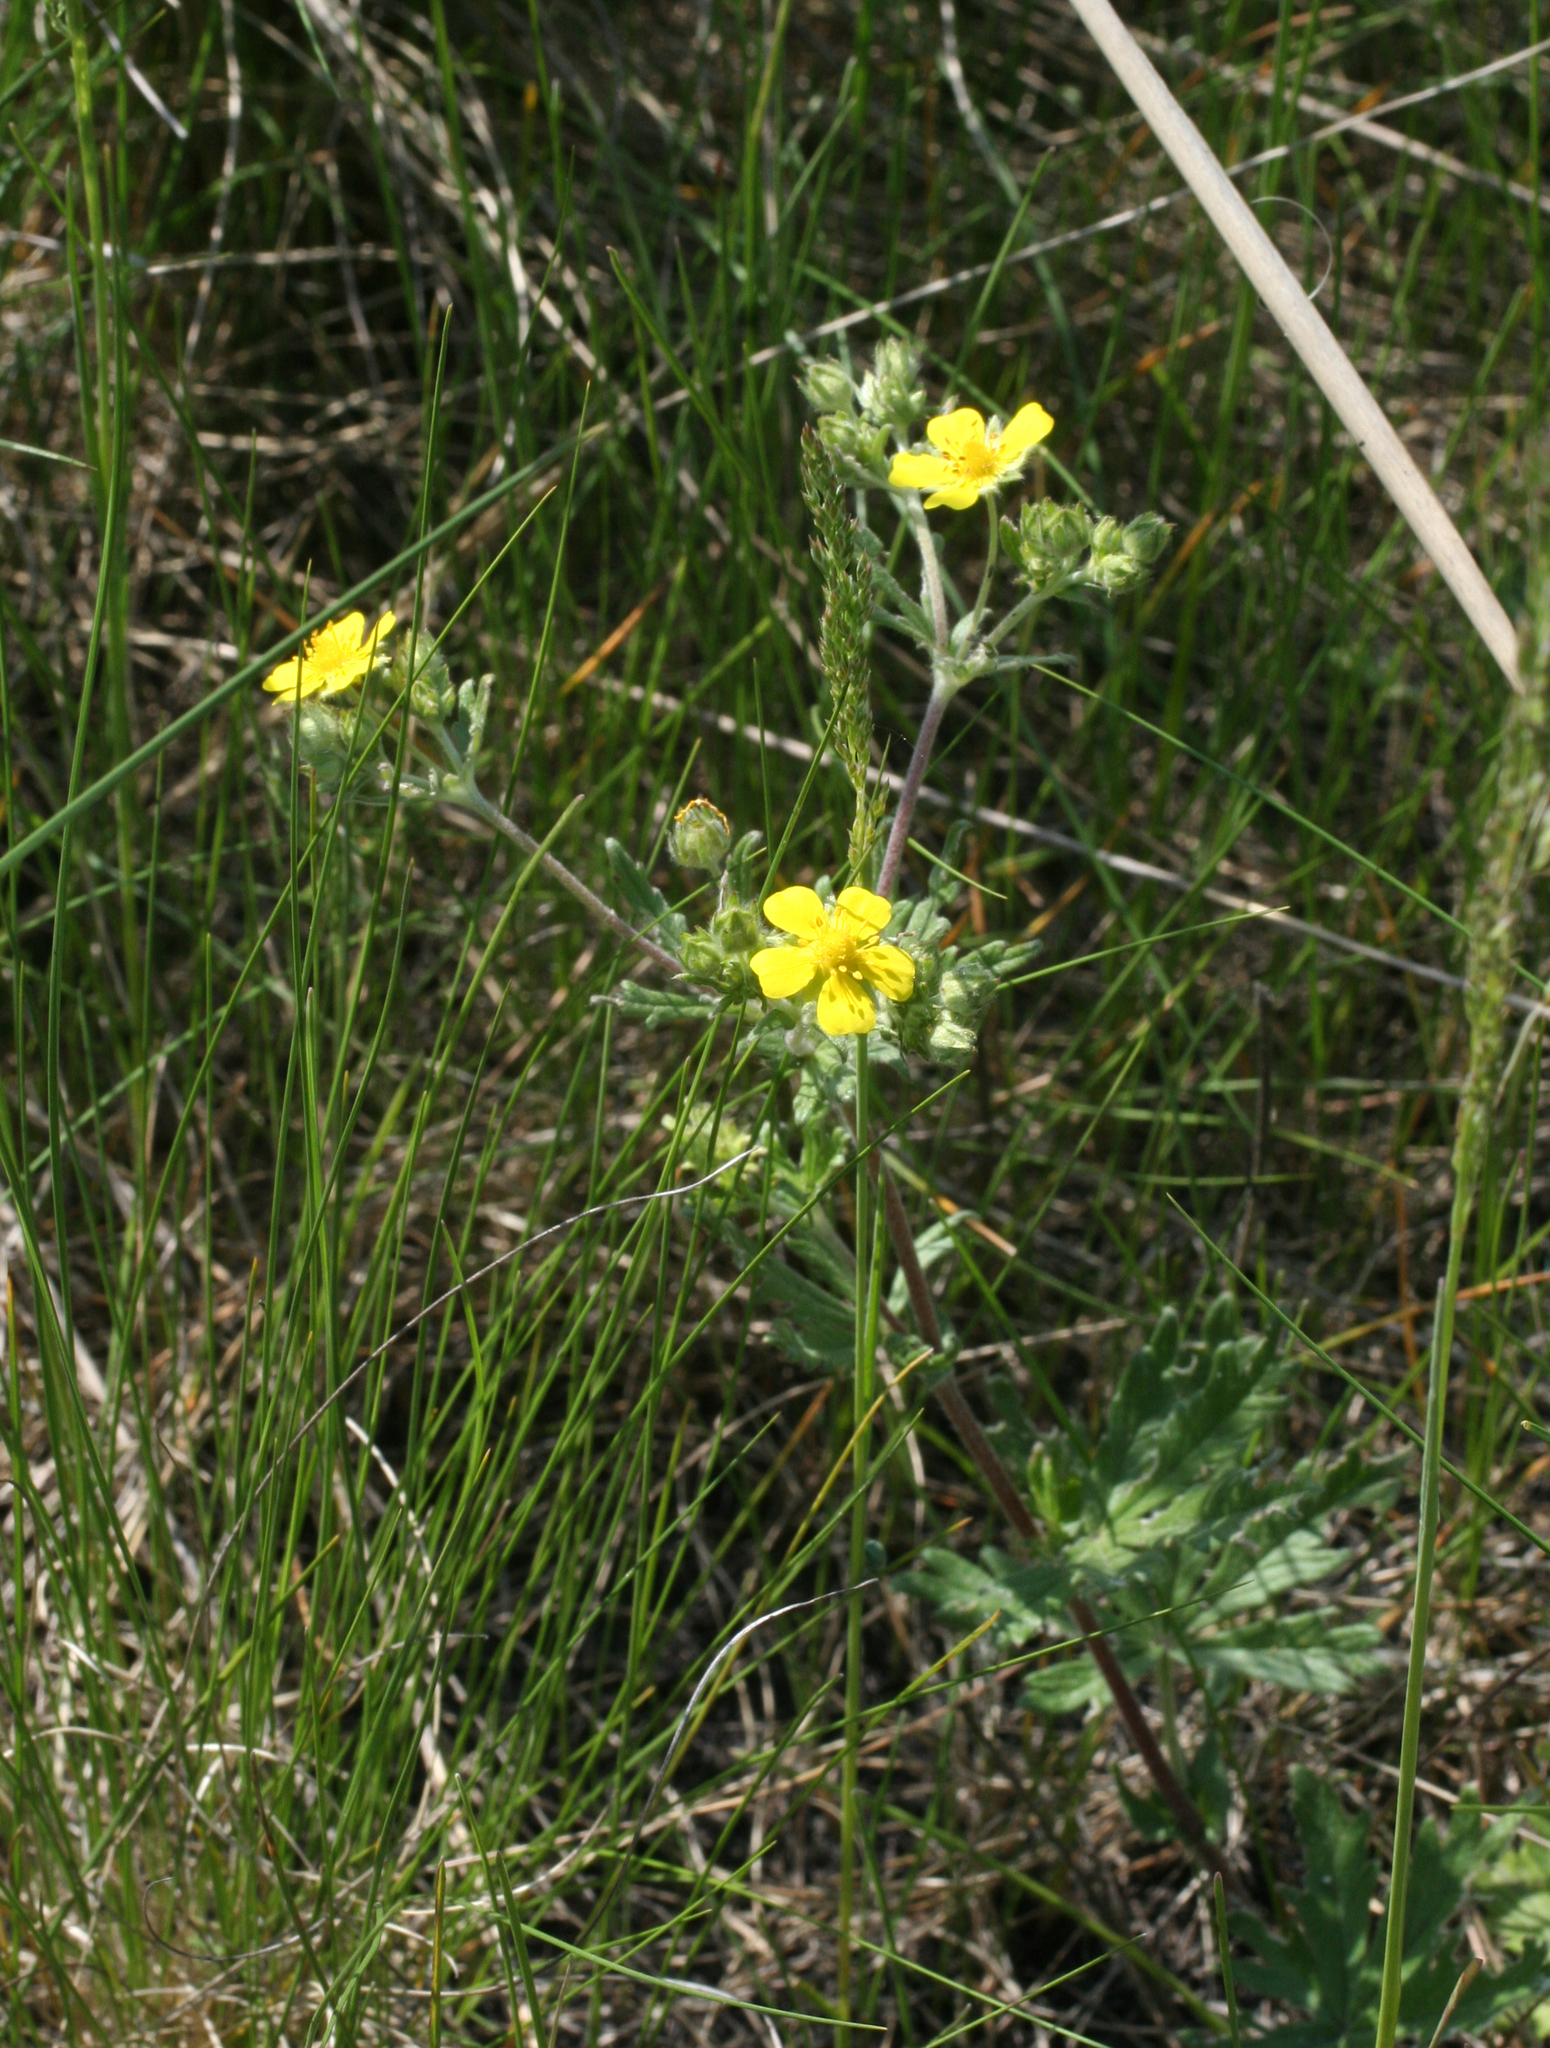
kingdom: Plantae
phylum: Tracheophyta
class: Magnoliopsida
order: Rosales
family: Rosaceae
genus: Potentilla
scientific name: Potentilla argentea
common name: Hoary cinquefoil
